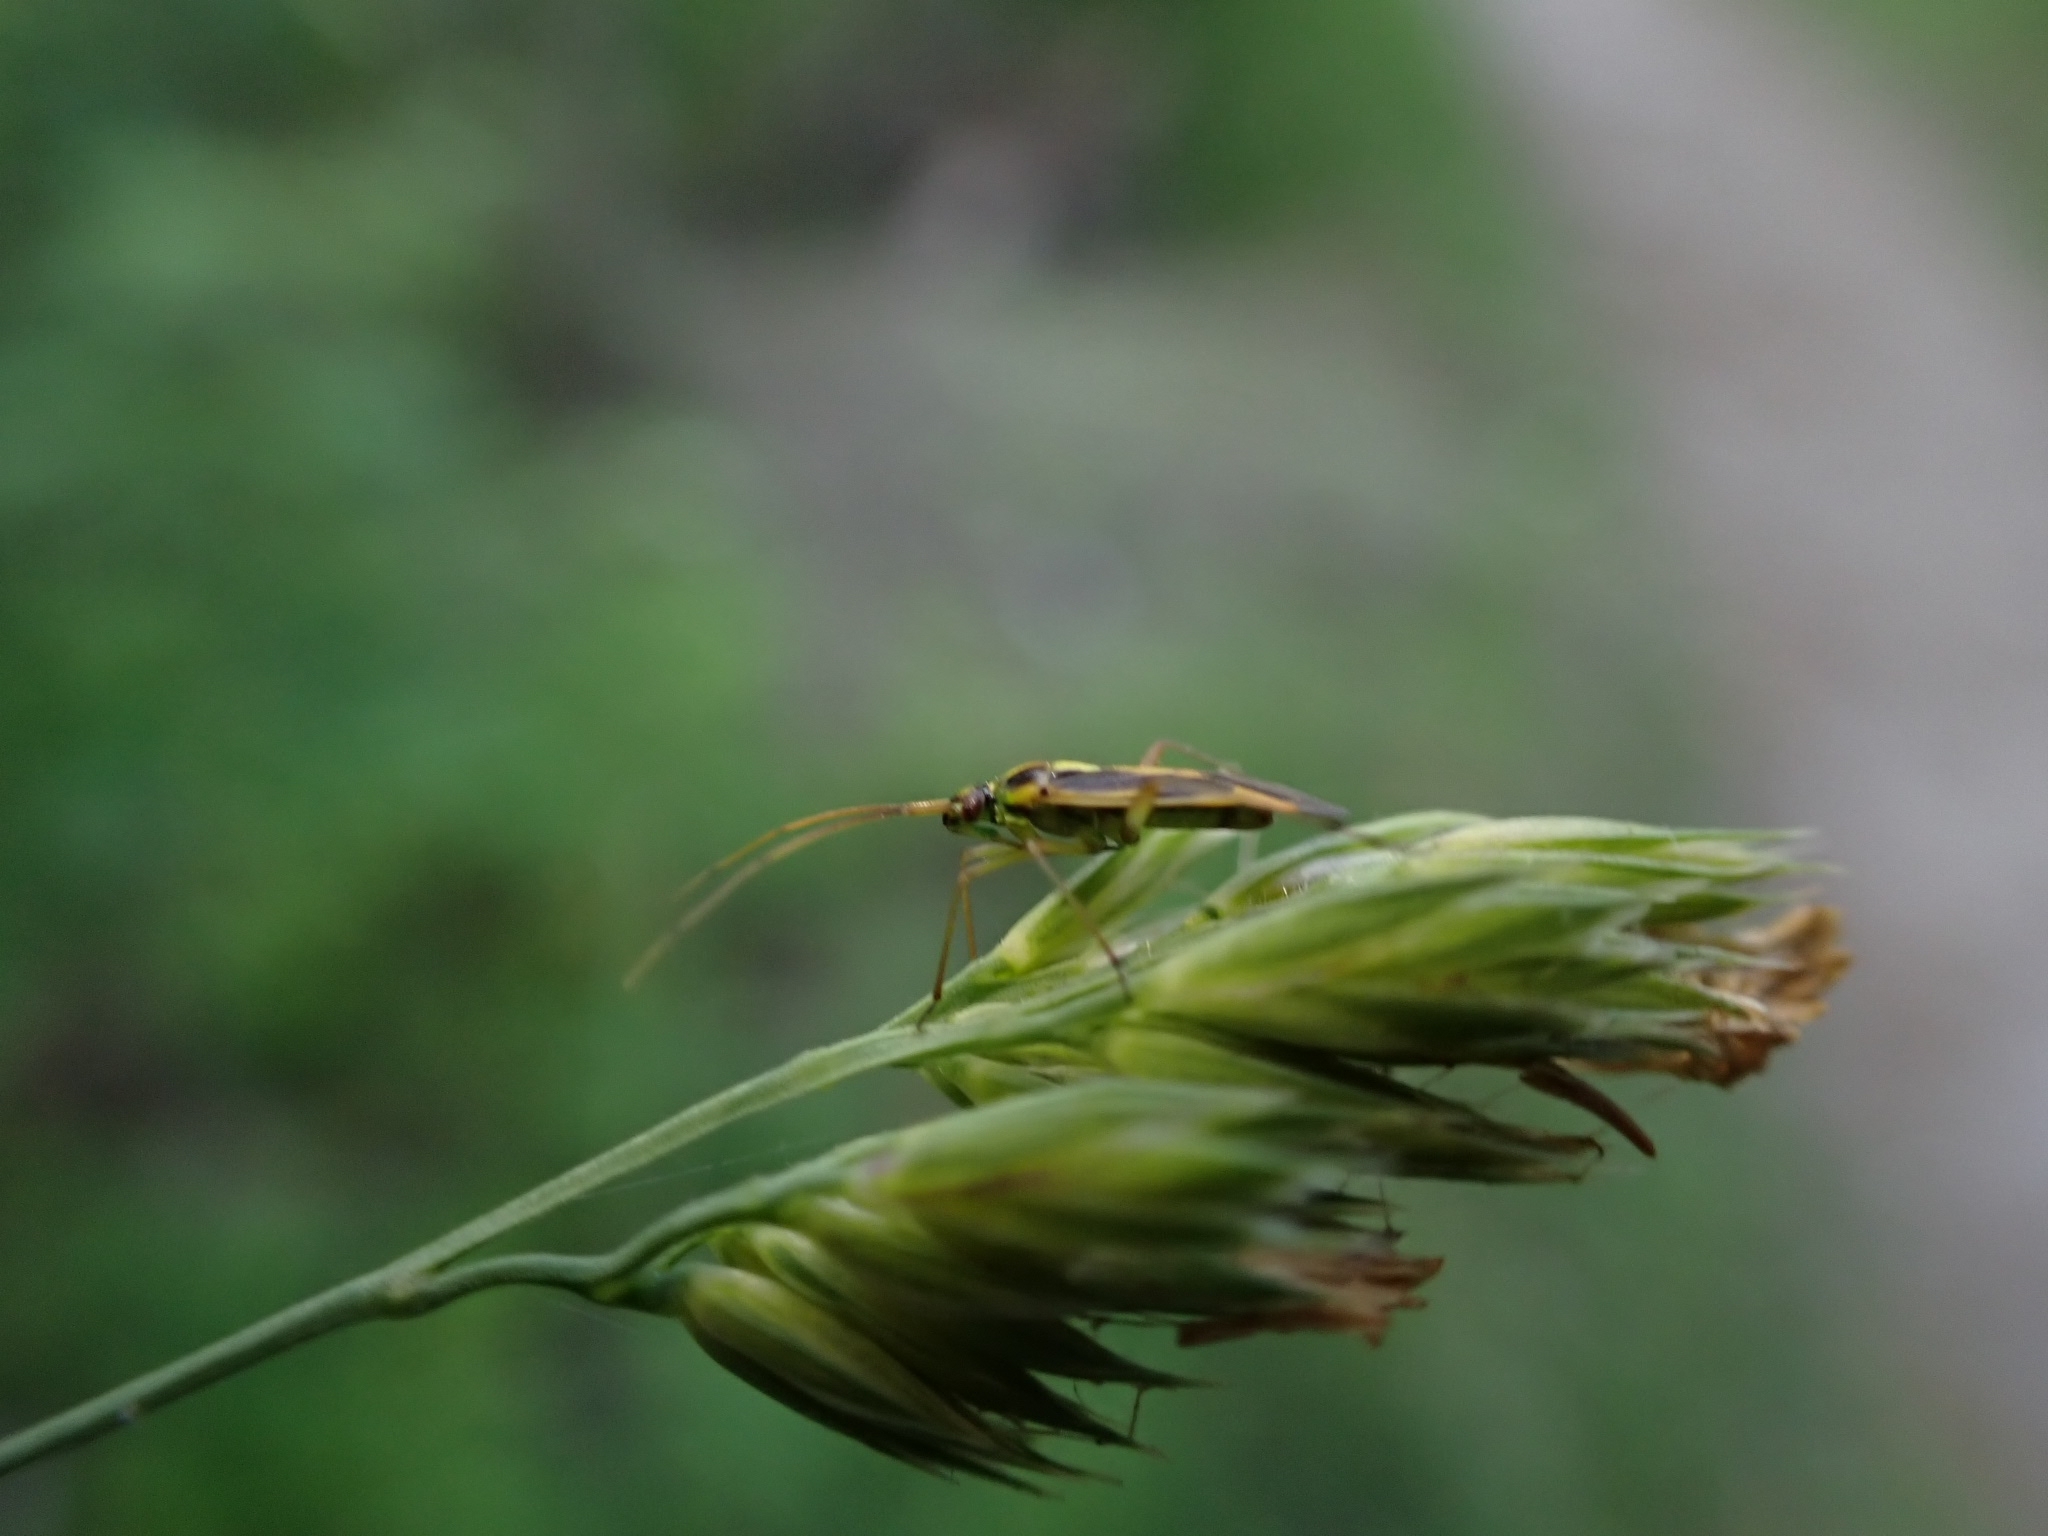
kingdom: Animalia
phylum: Arthropoda
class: Insecta
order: Hemiptera
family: Miridae
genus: Stenotus
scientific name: Stenotus binotatus
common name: Plant bug
